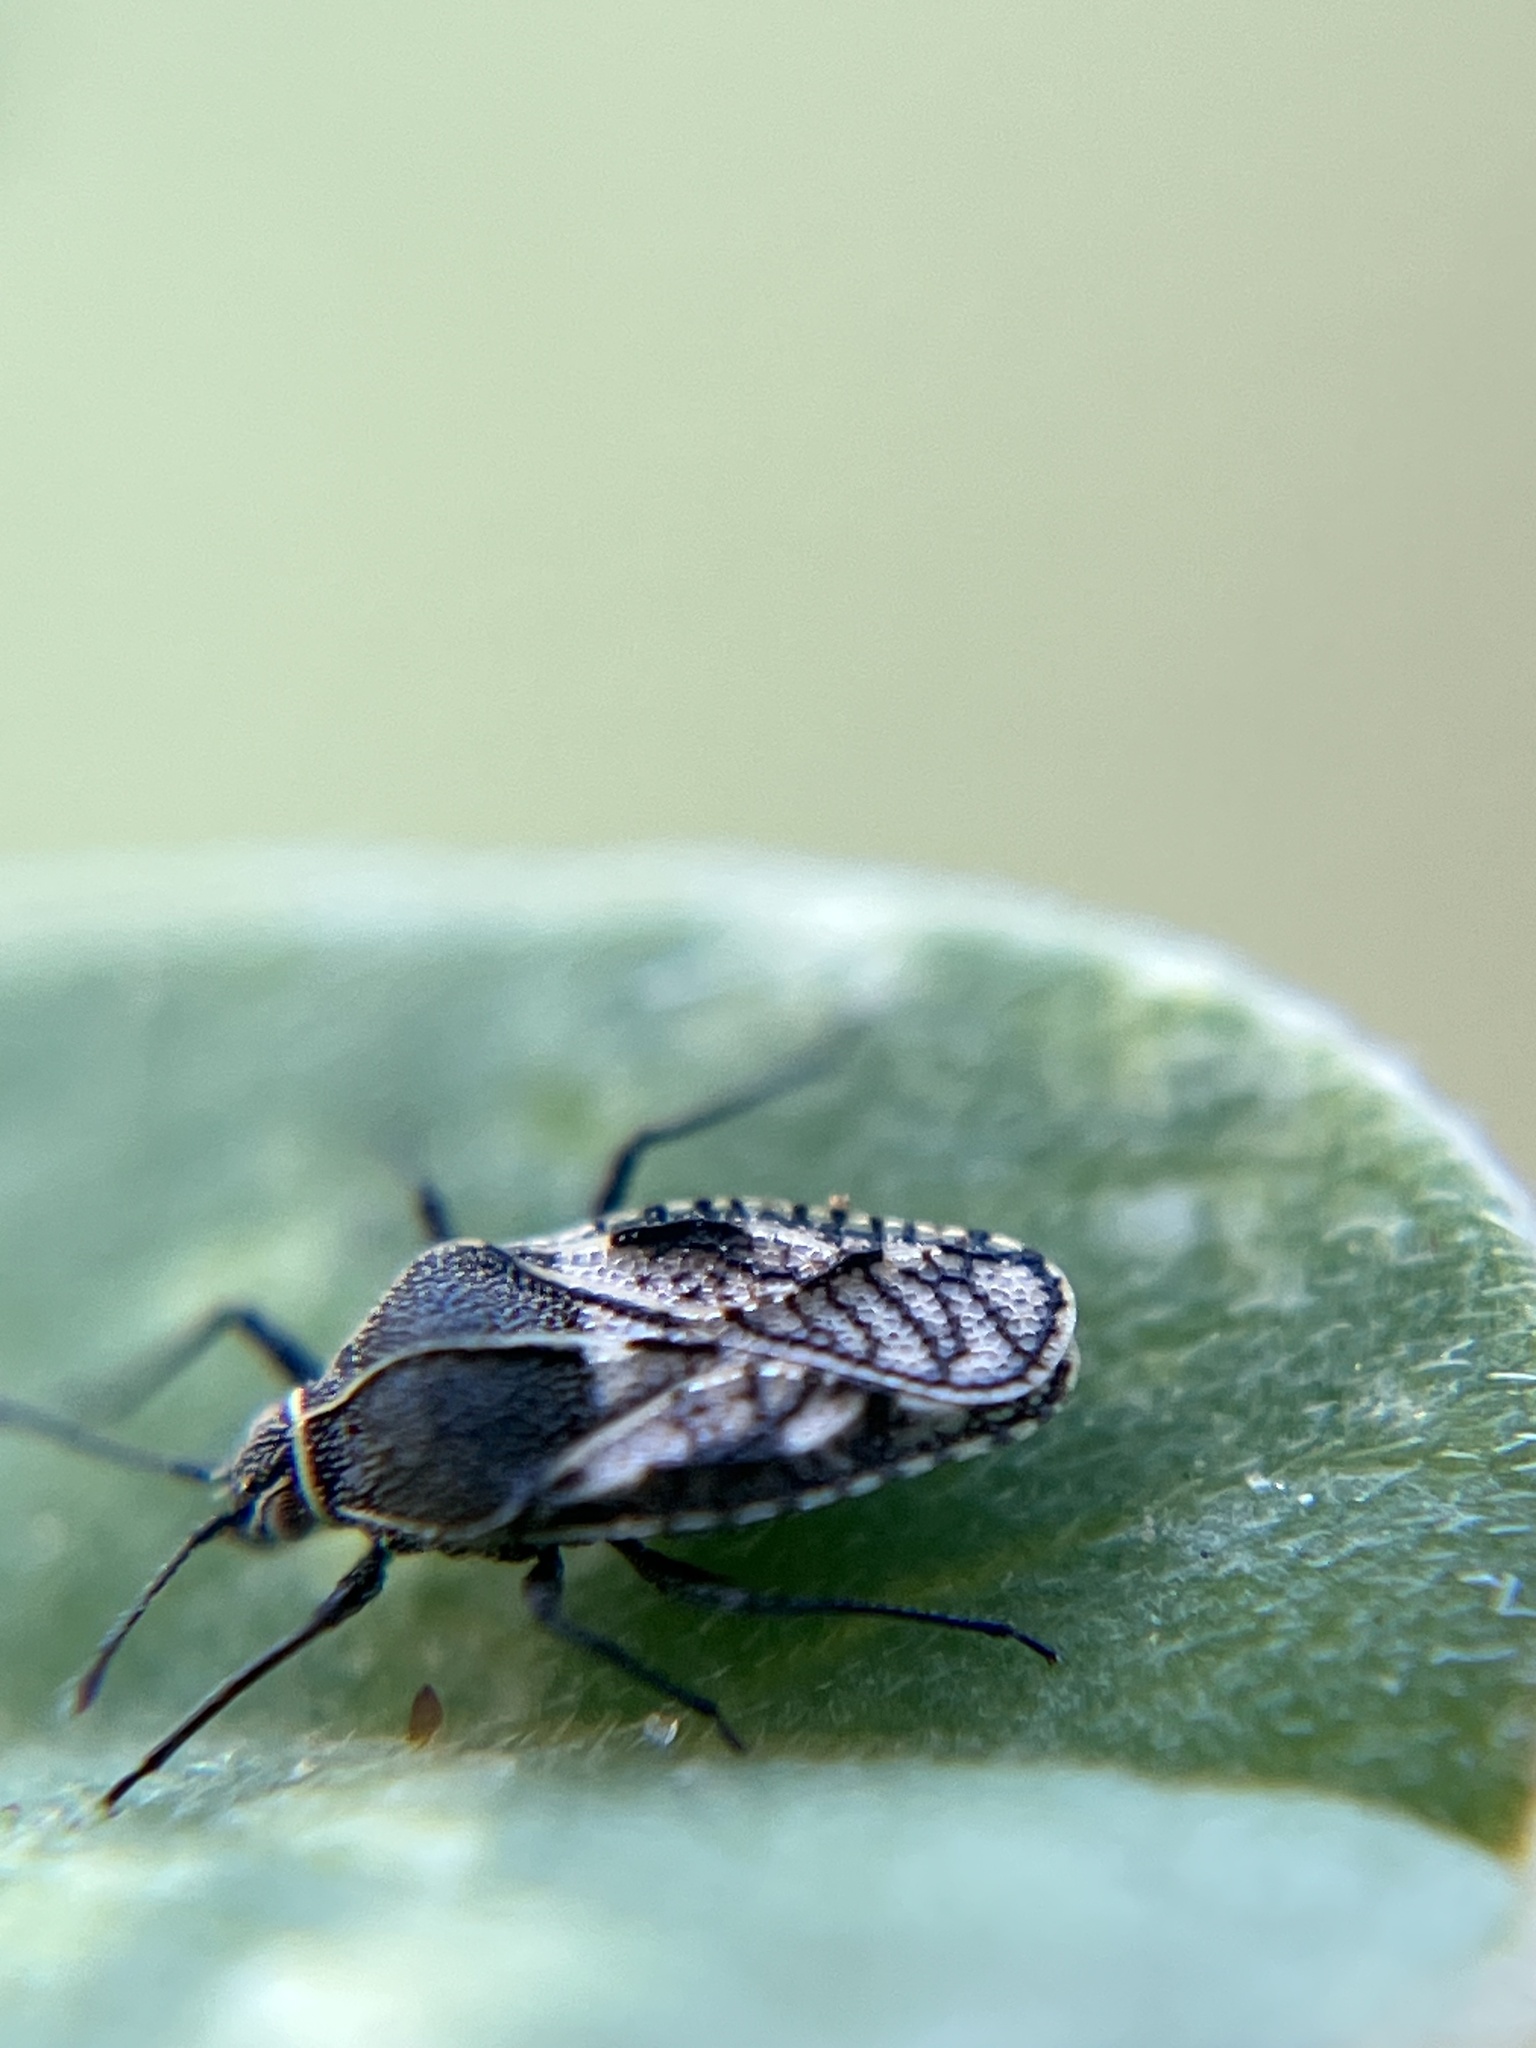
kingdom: Animalia
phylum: Arthropoda
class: Insecta
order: Hemiptera
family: Tingidae
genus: Phaenotropis
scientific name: Phaenotropis cleopatra
